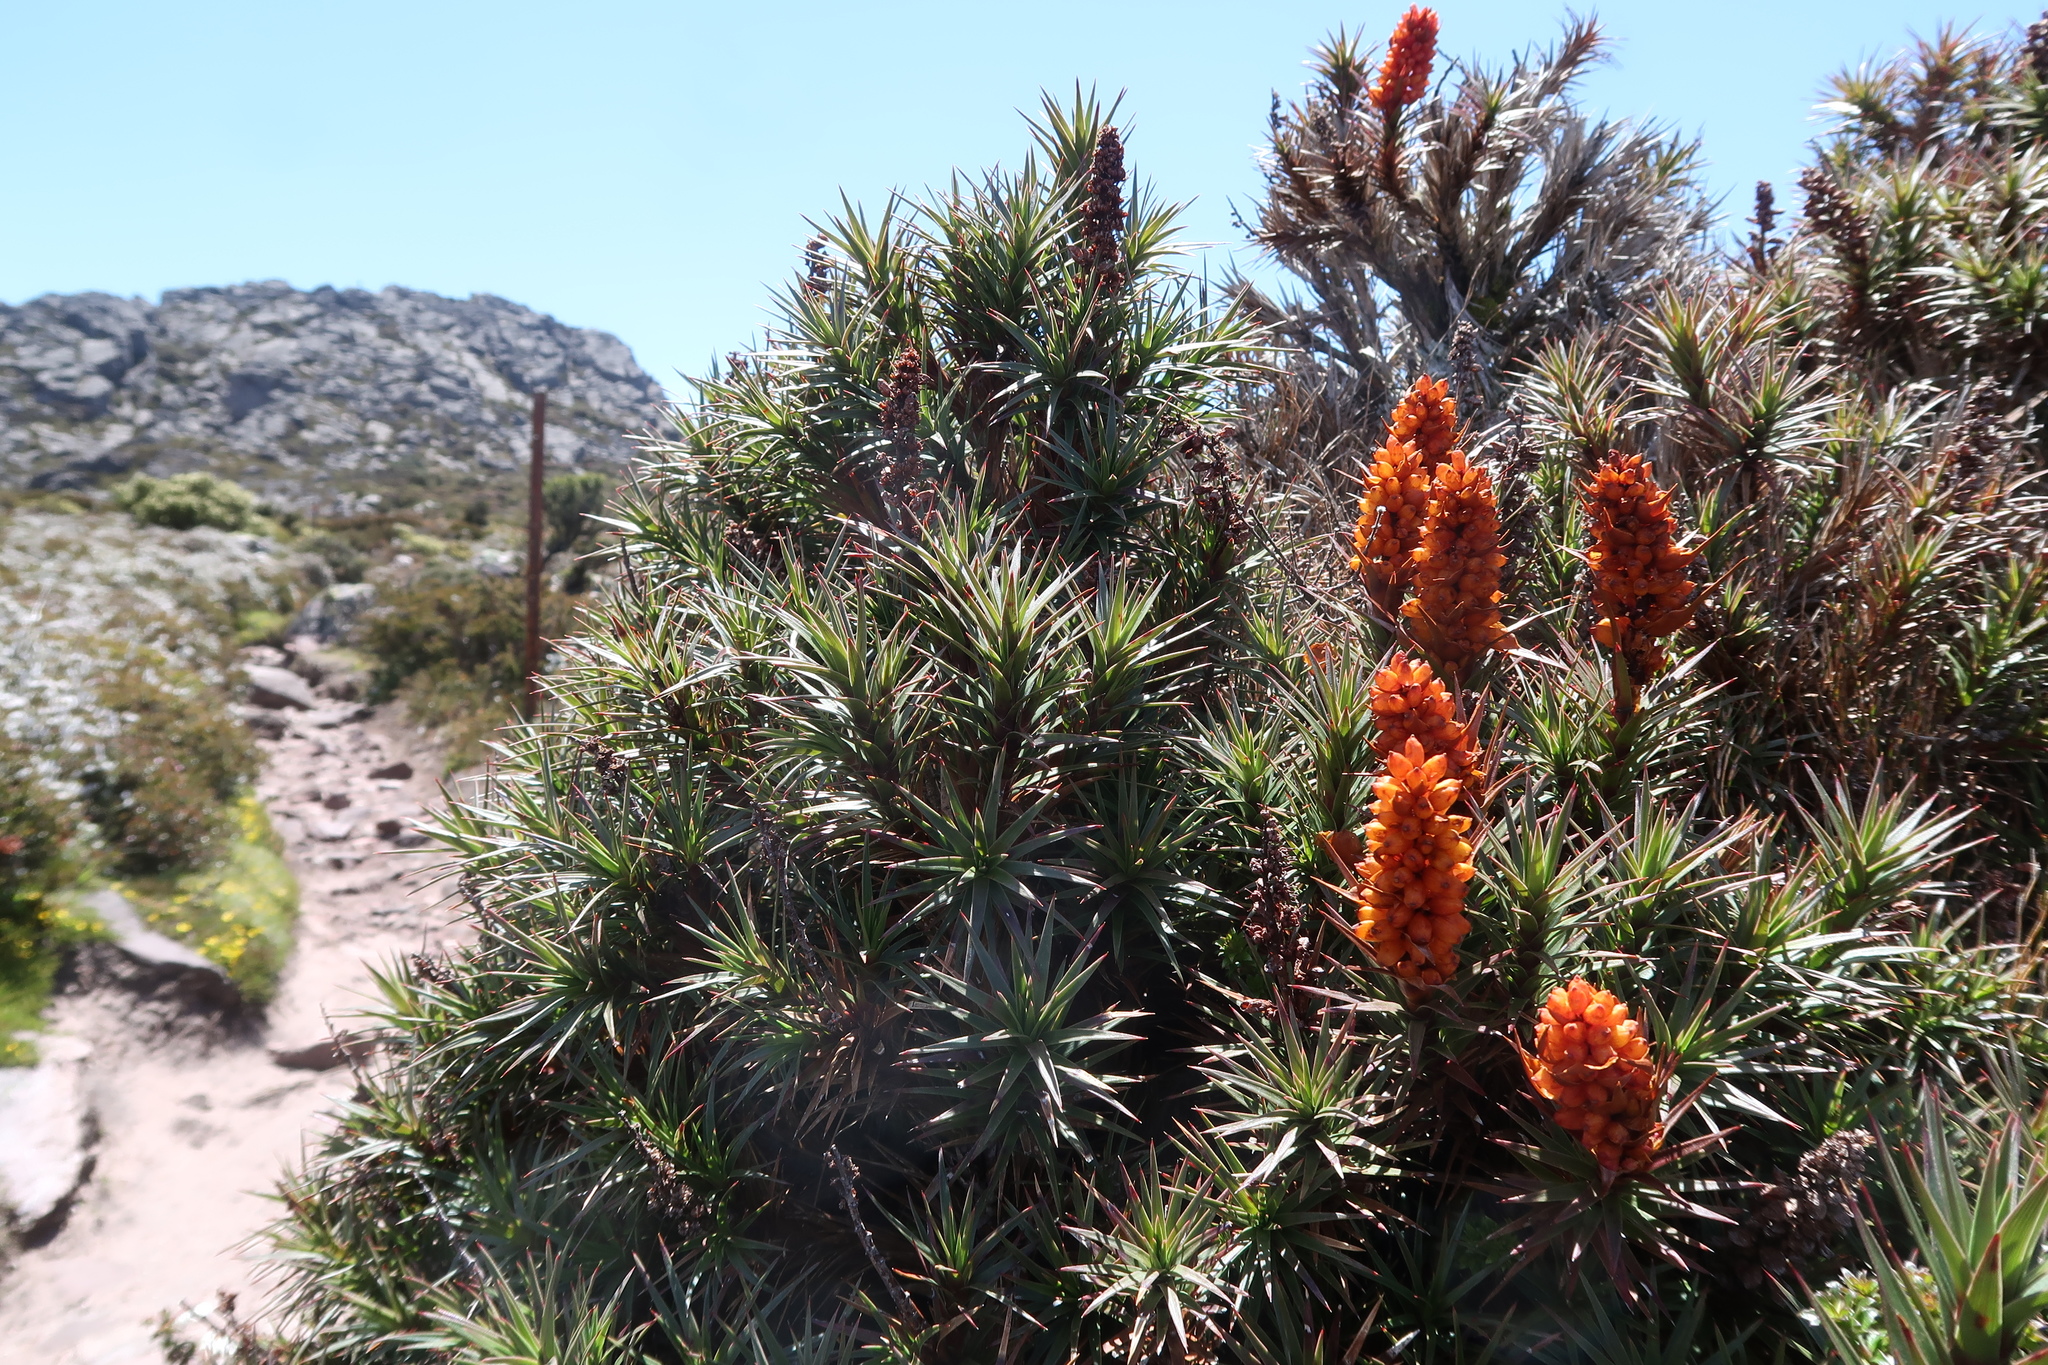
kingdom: Plantae
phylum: Tracheophyta
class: Magnoliopsida
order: Ericales
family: Ericaceae
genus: Dracophyllum
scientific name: Dracophyllum persistentifolium
